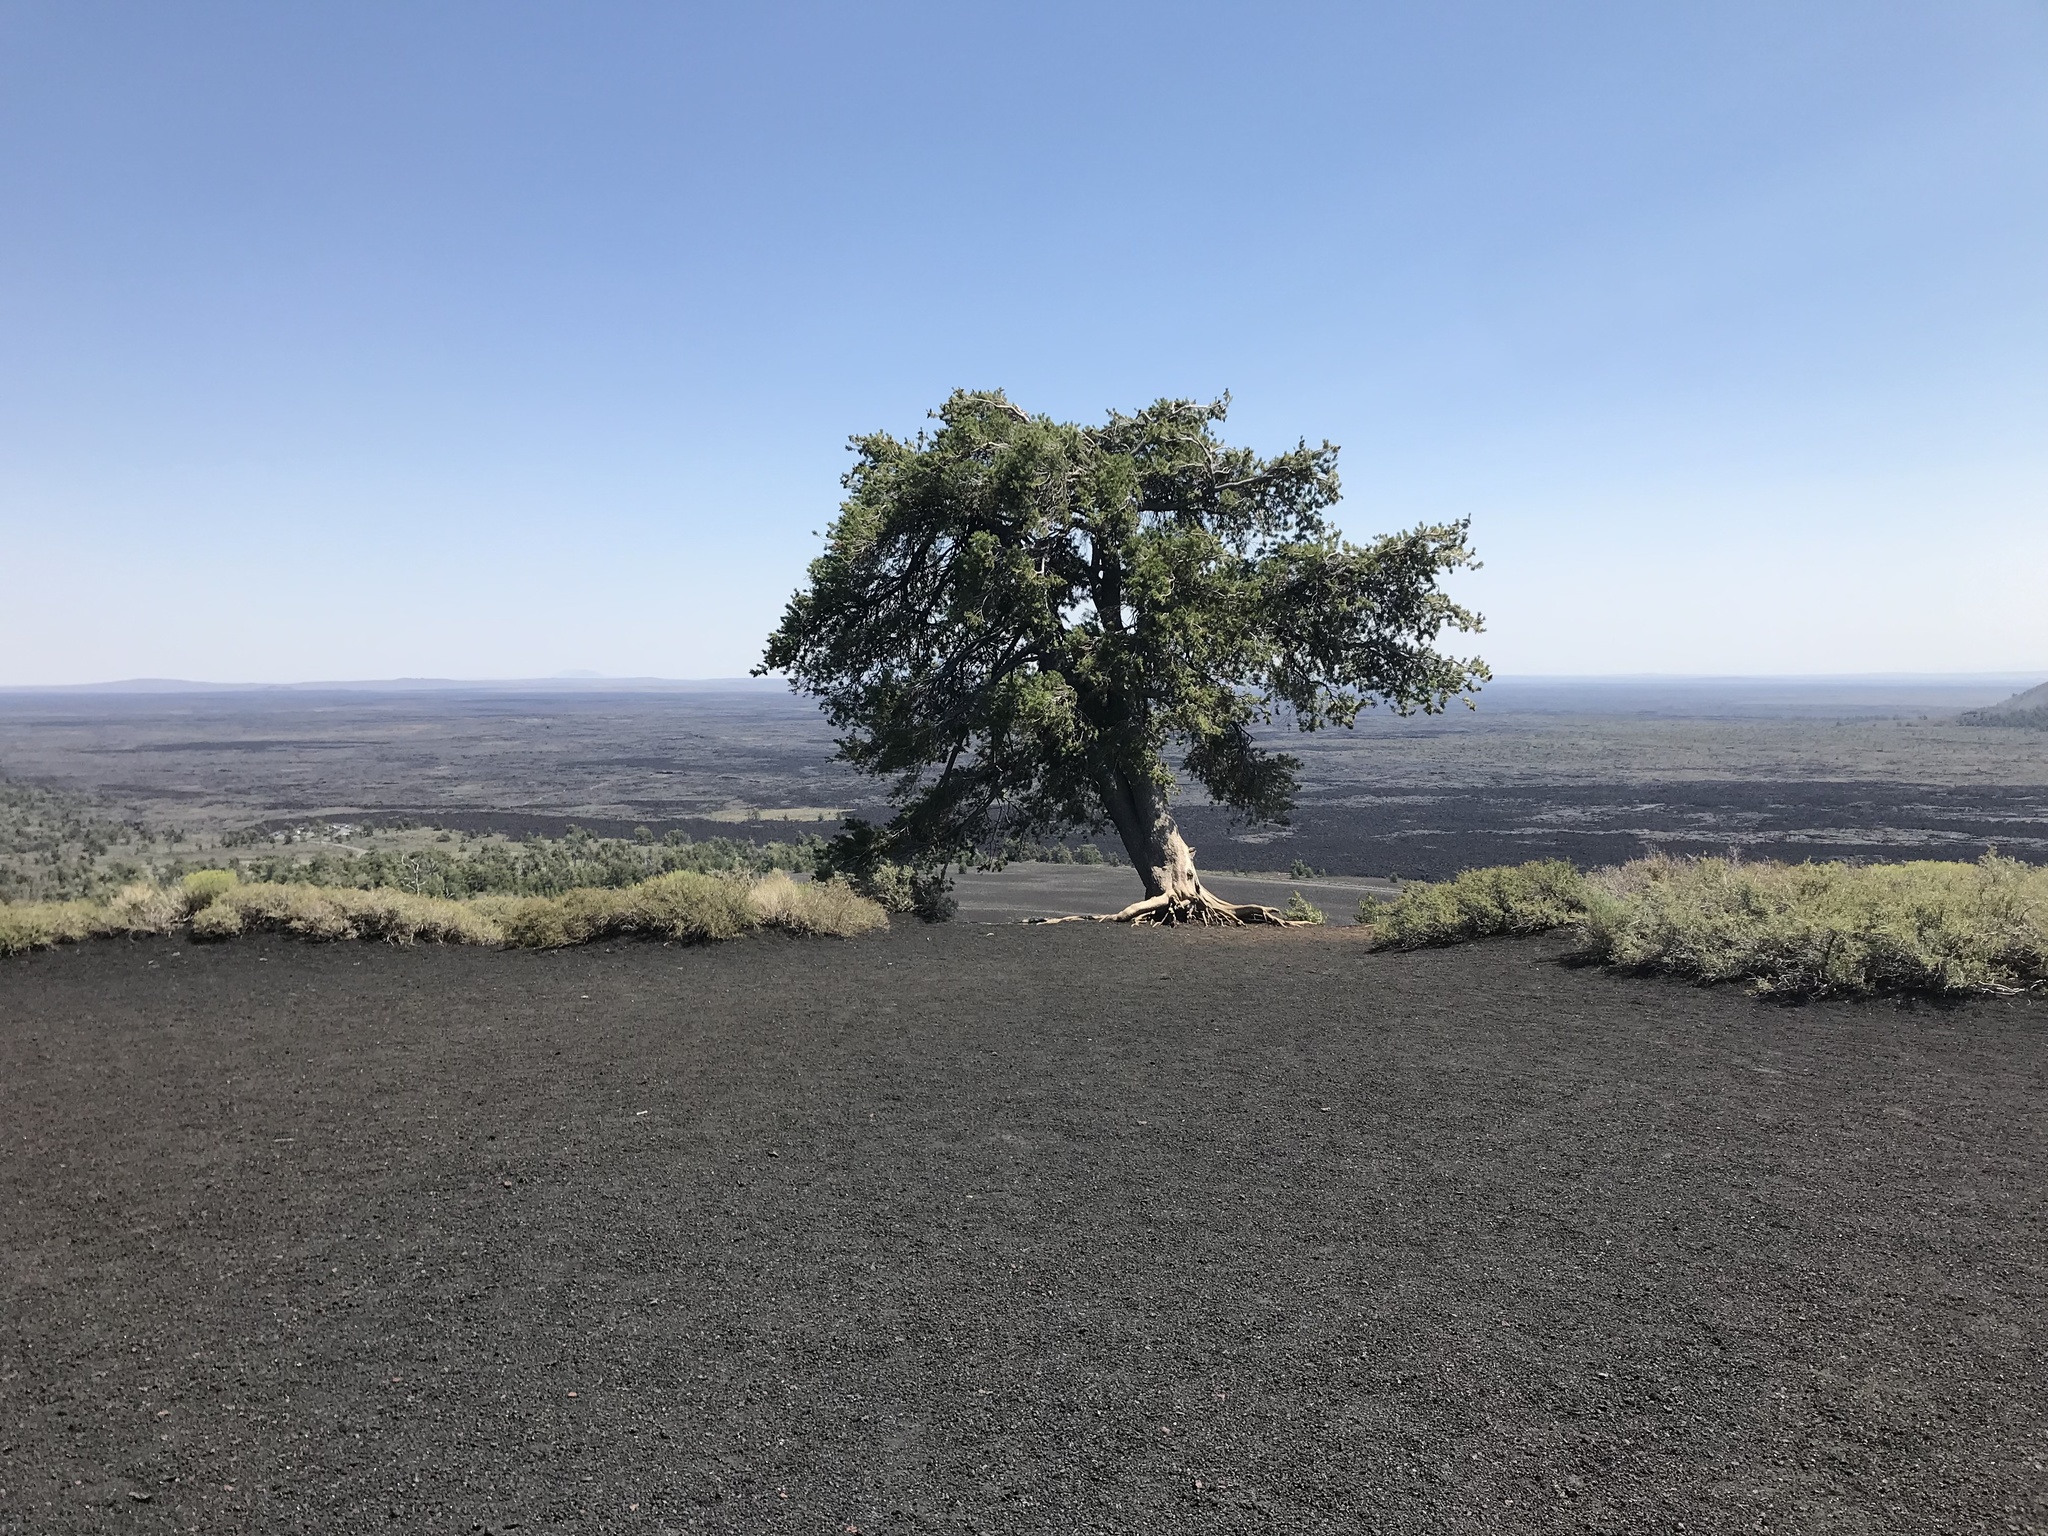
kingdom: Plantae
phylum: Tracheophyta
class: Pinopsida
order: Pinales
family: Pinaceae
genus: Pinus
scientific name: Pinus flexilis
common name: Limber pine
